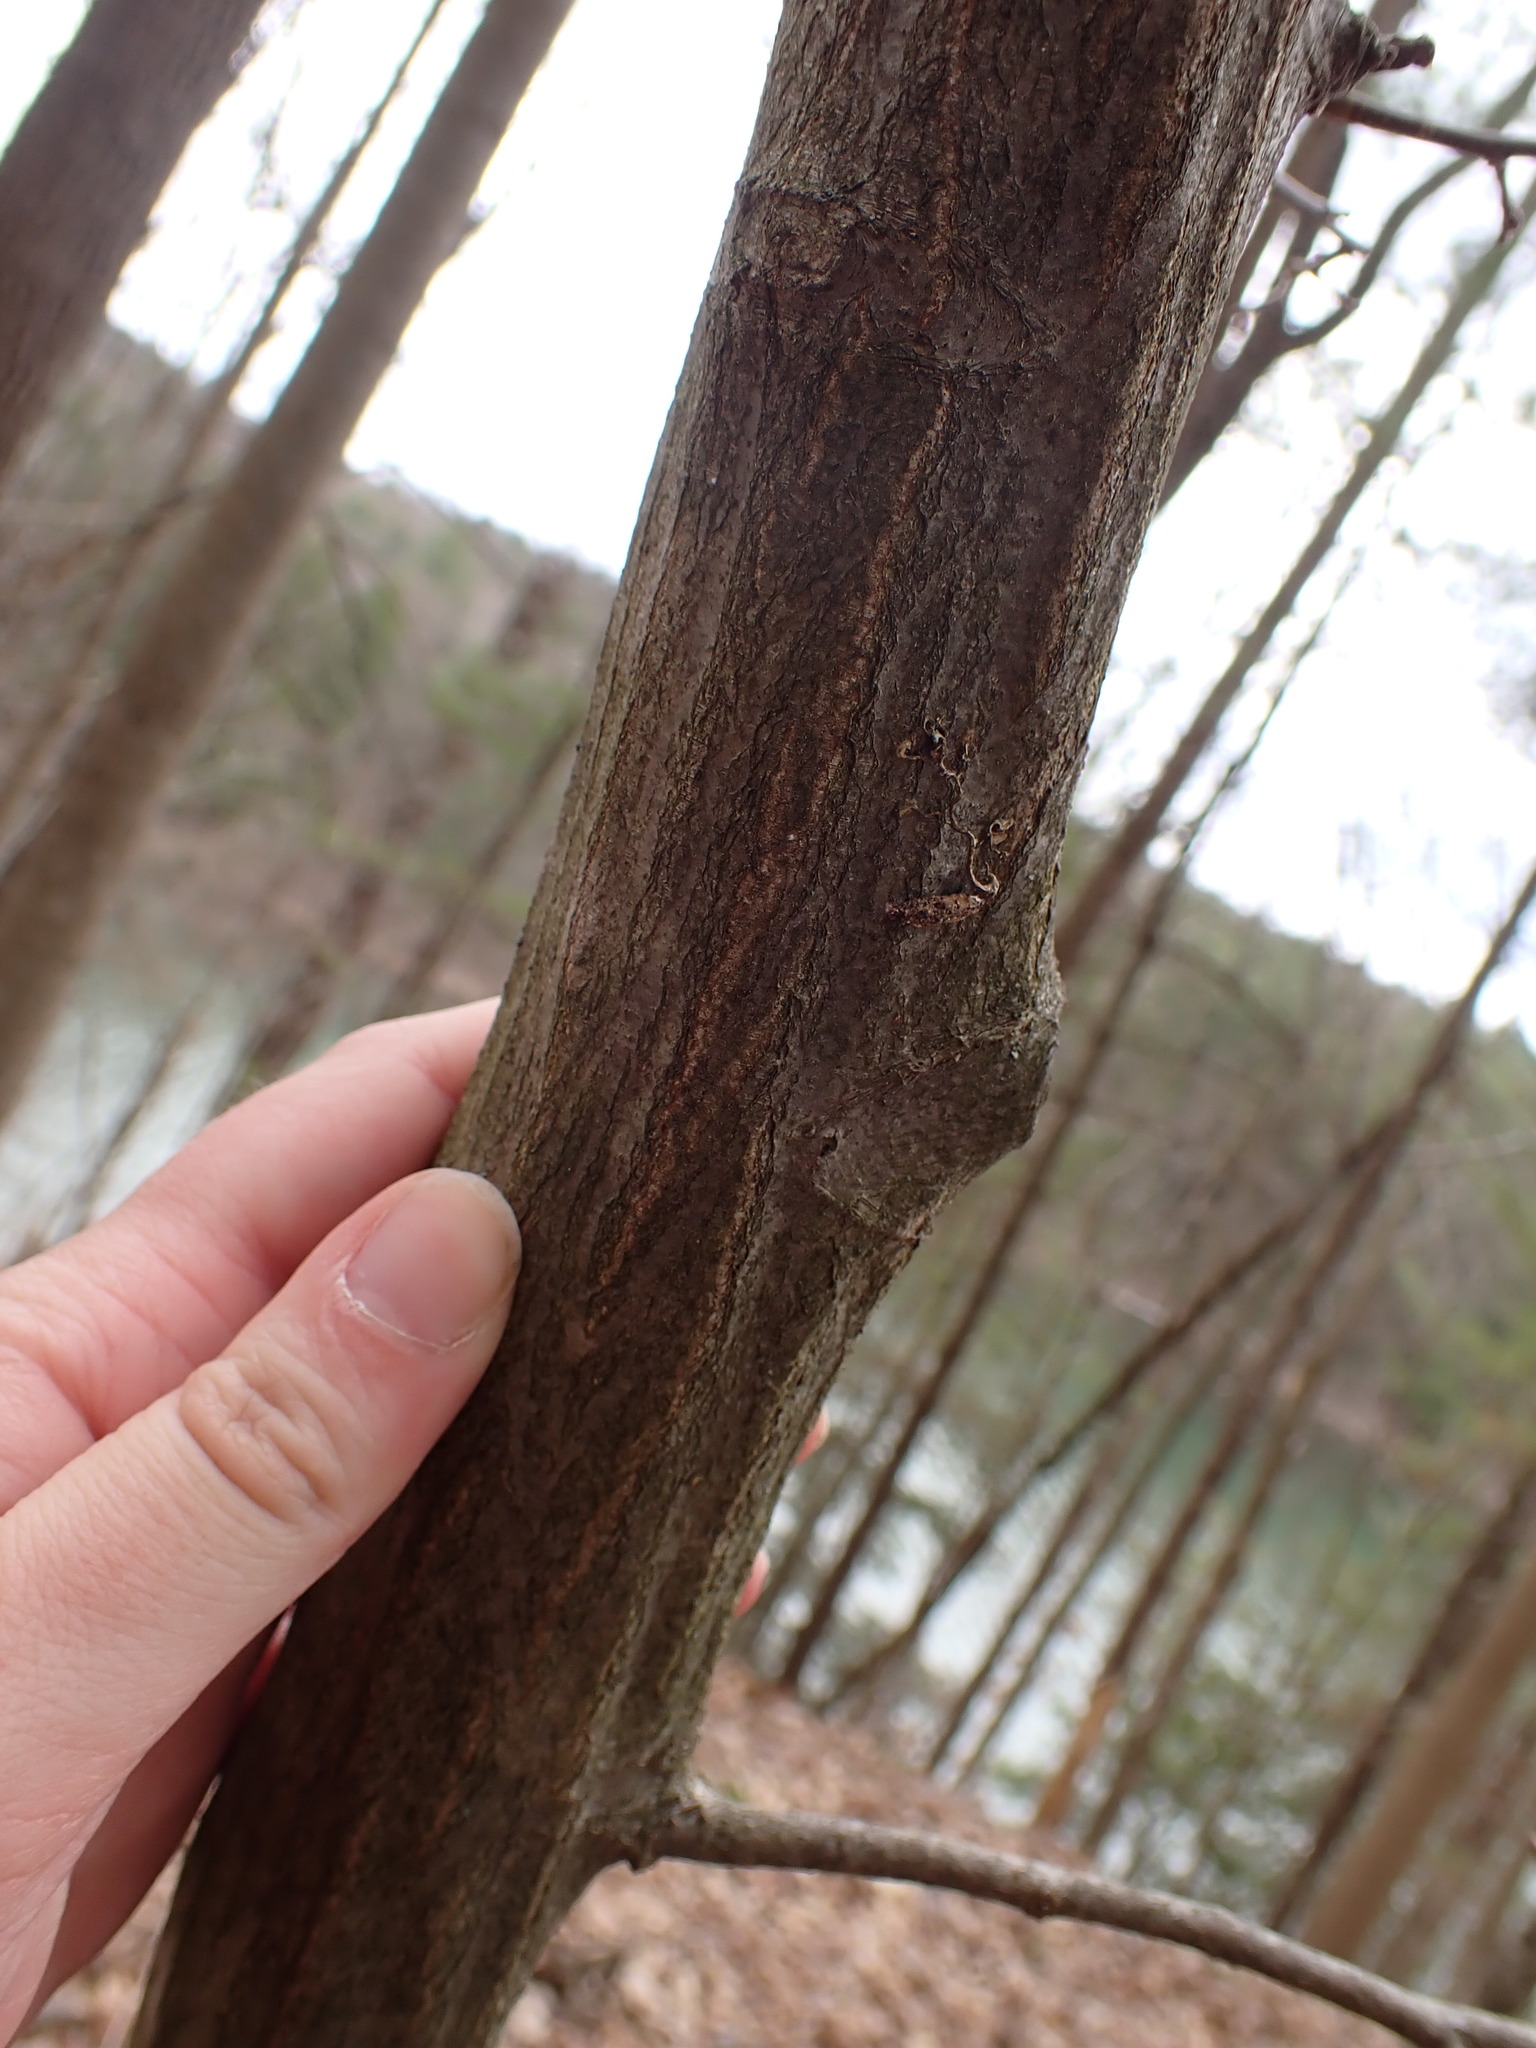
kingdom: Plantae
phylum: Tracheophyta
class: Magnoliopsida
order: Fagales
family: Betulaceae
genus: Carpinus
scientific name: Carpinus caroliniana
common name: American hornbeam
